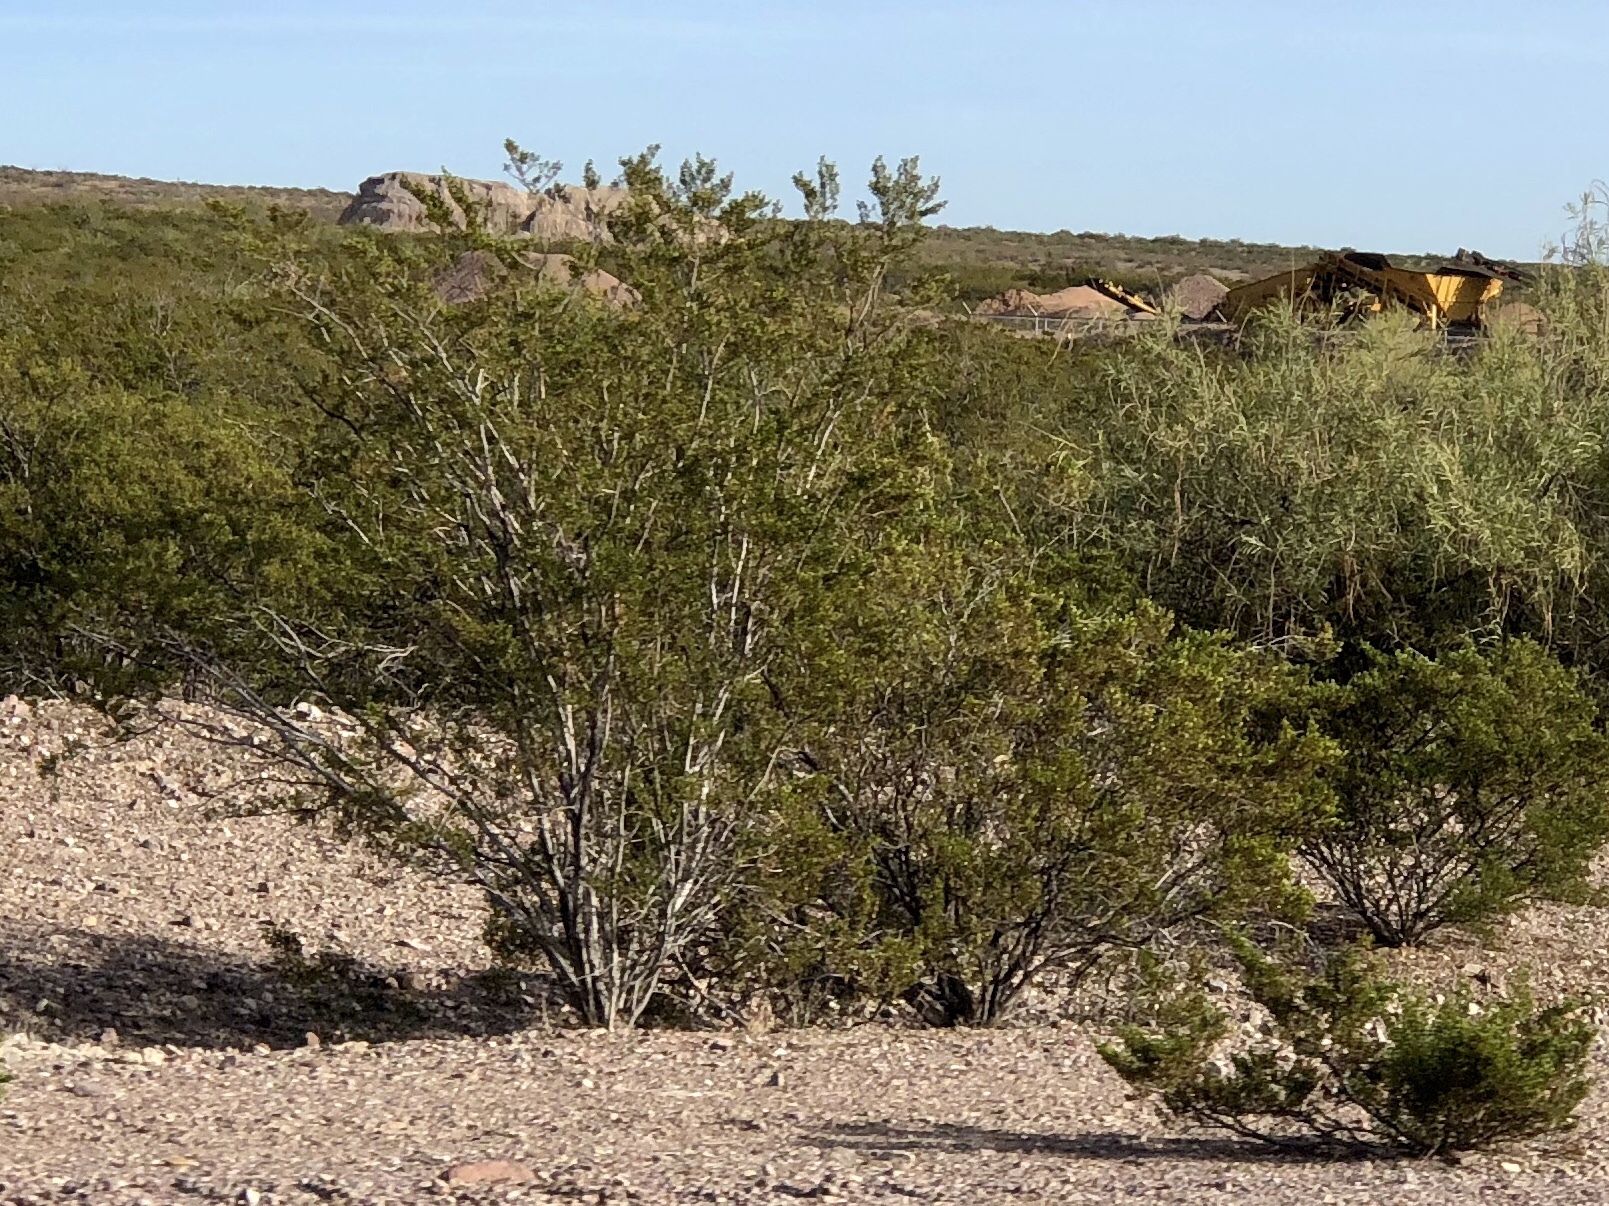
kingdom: Plantae
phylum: Tracheophyta
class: Magnoliopsida
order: Zygophyllales
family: Zygophyllaceae
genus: Larrea
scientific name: Larrea tridentata
